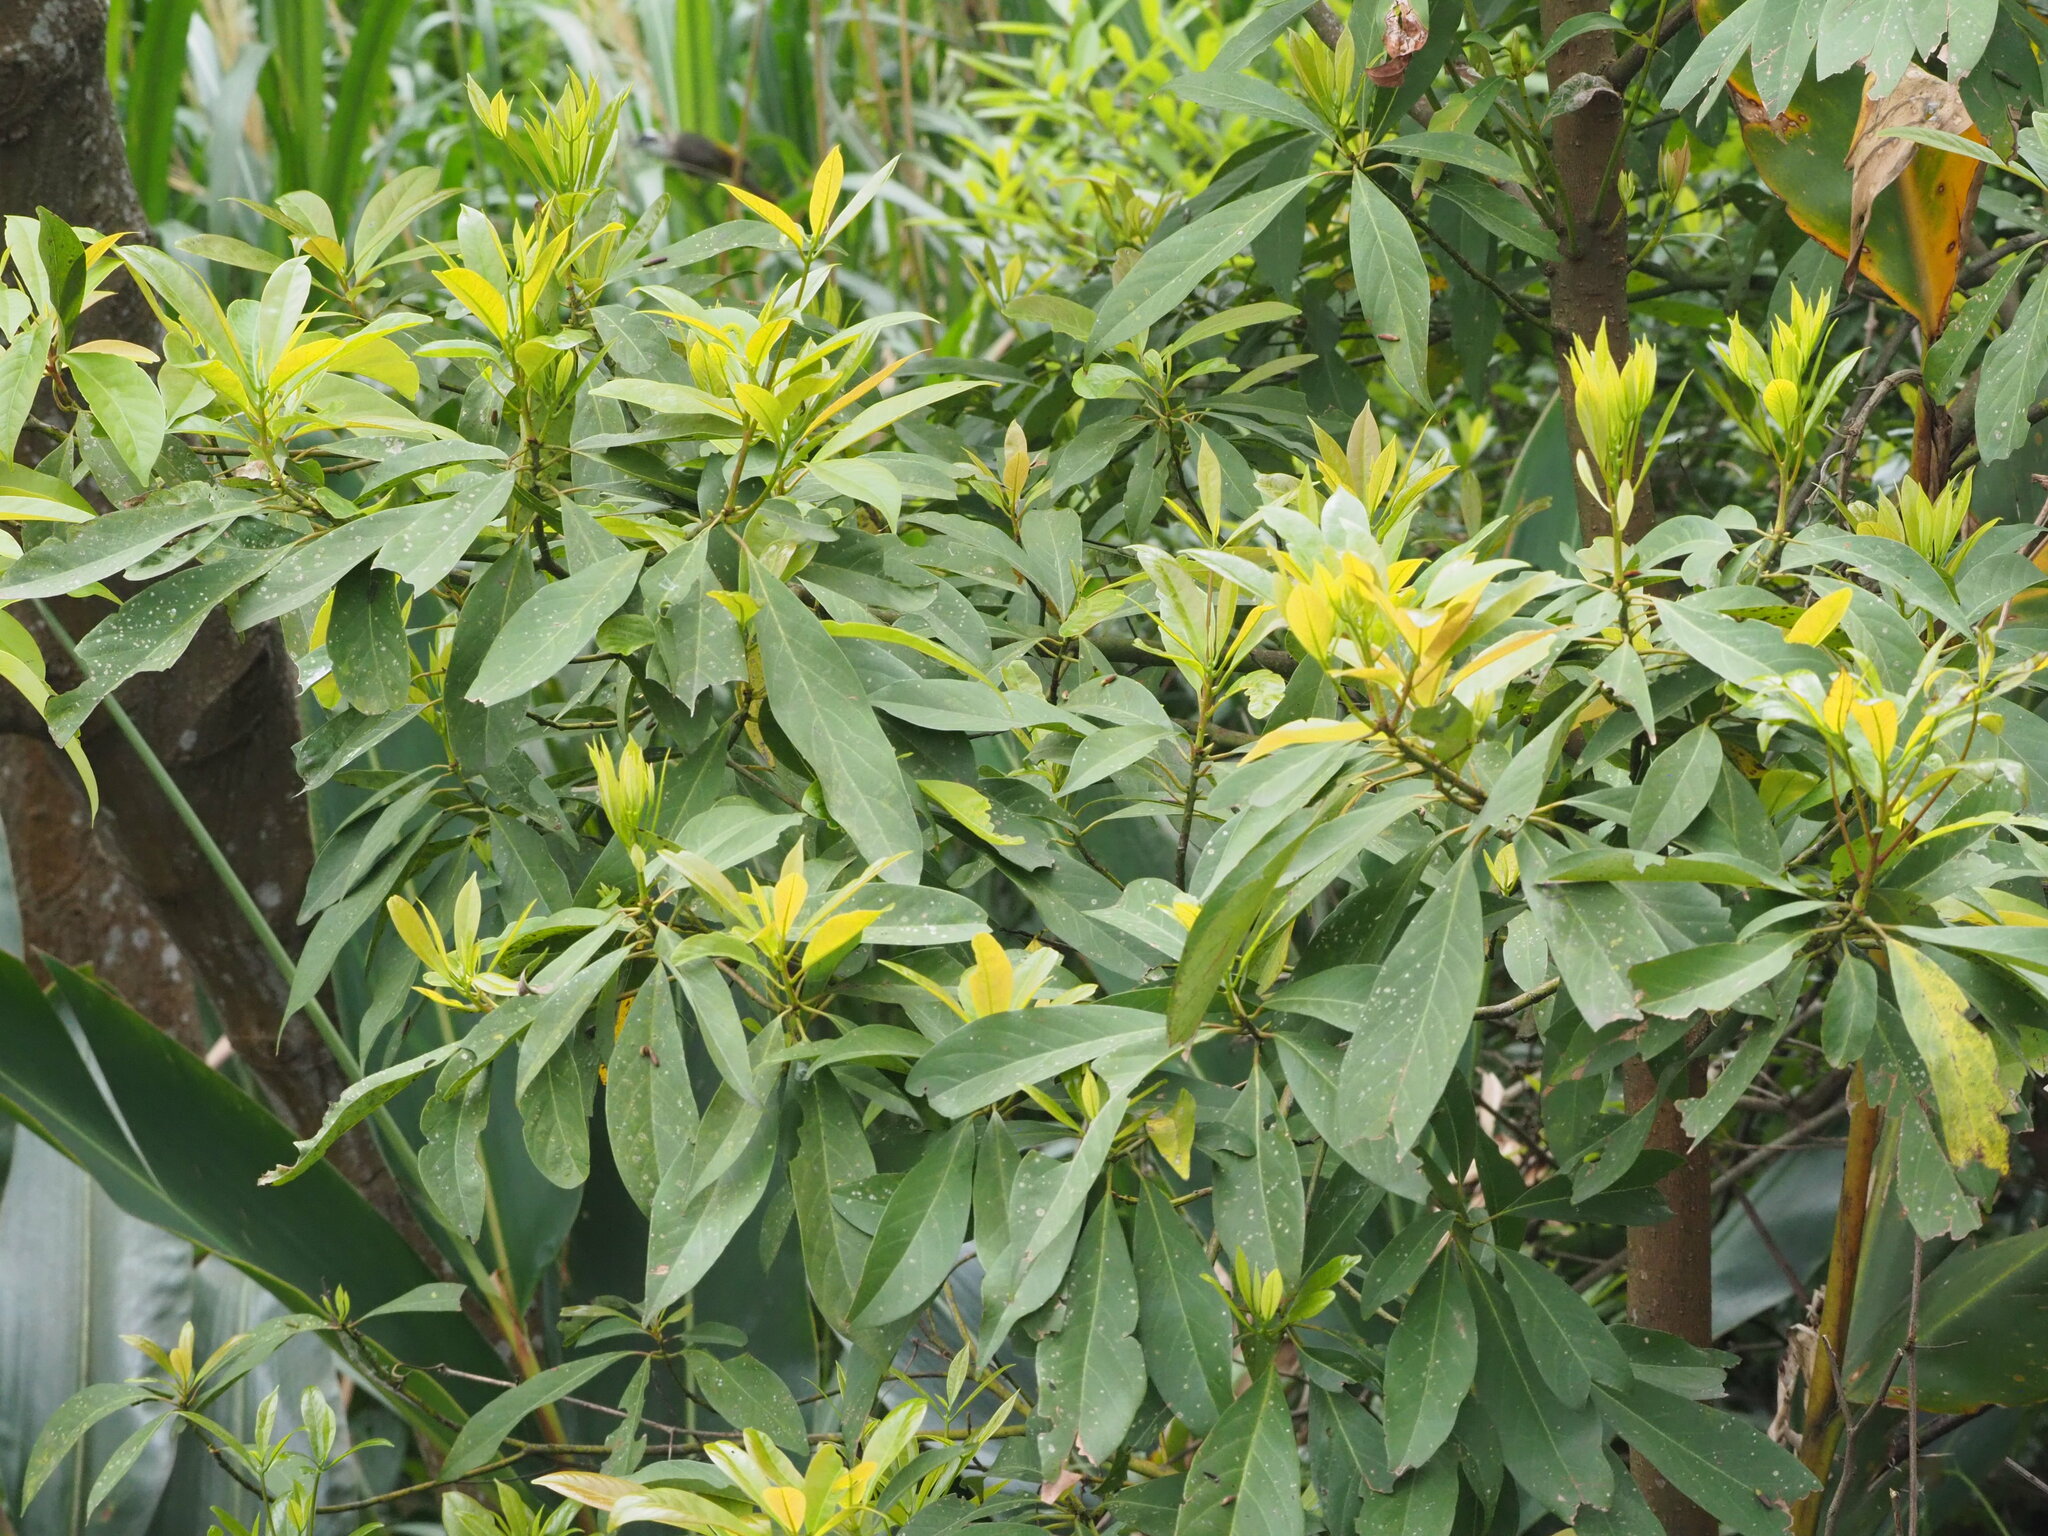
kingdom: Plantae
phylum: Tracheophyta
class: Magnoliopsida
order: Laurales
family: Lauraceae
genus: Machilus
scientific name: Machilus zuihoensis
